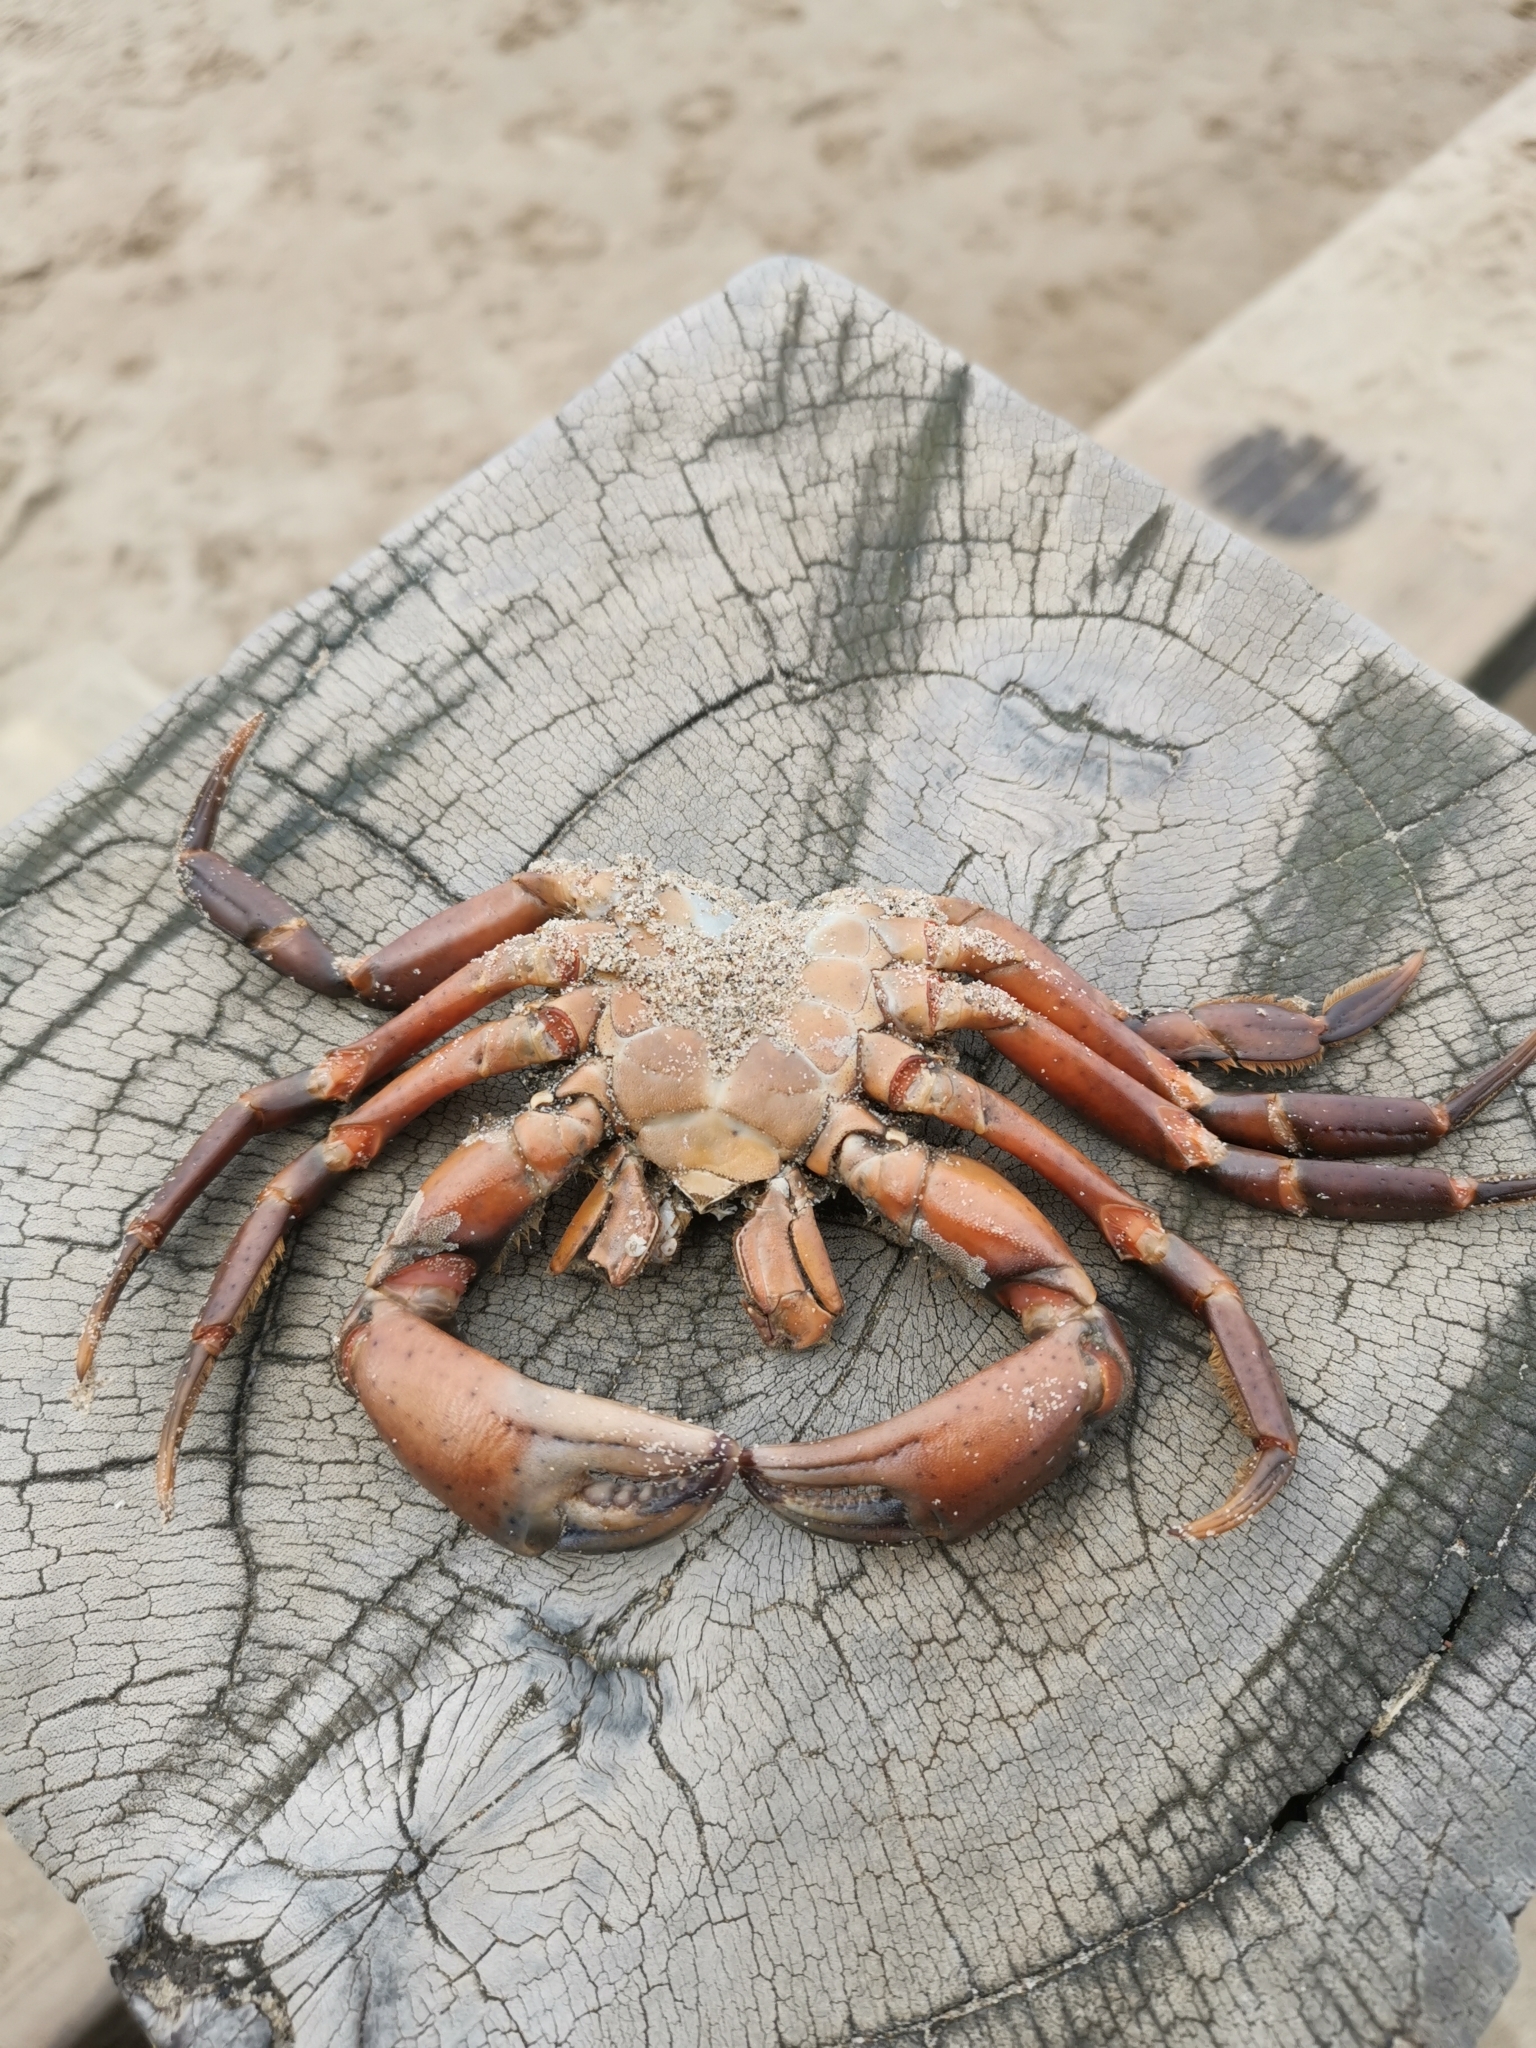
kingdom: Animalia
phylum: Arthropoda
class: Malacostraca
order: Decapoda
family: Carcinidae
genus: Carcinus
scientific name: Carcinus maenas
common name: European green crab
